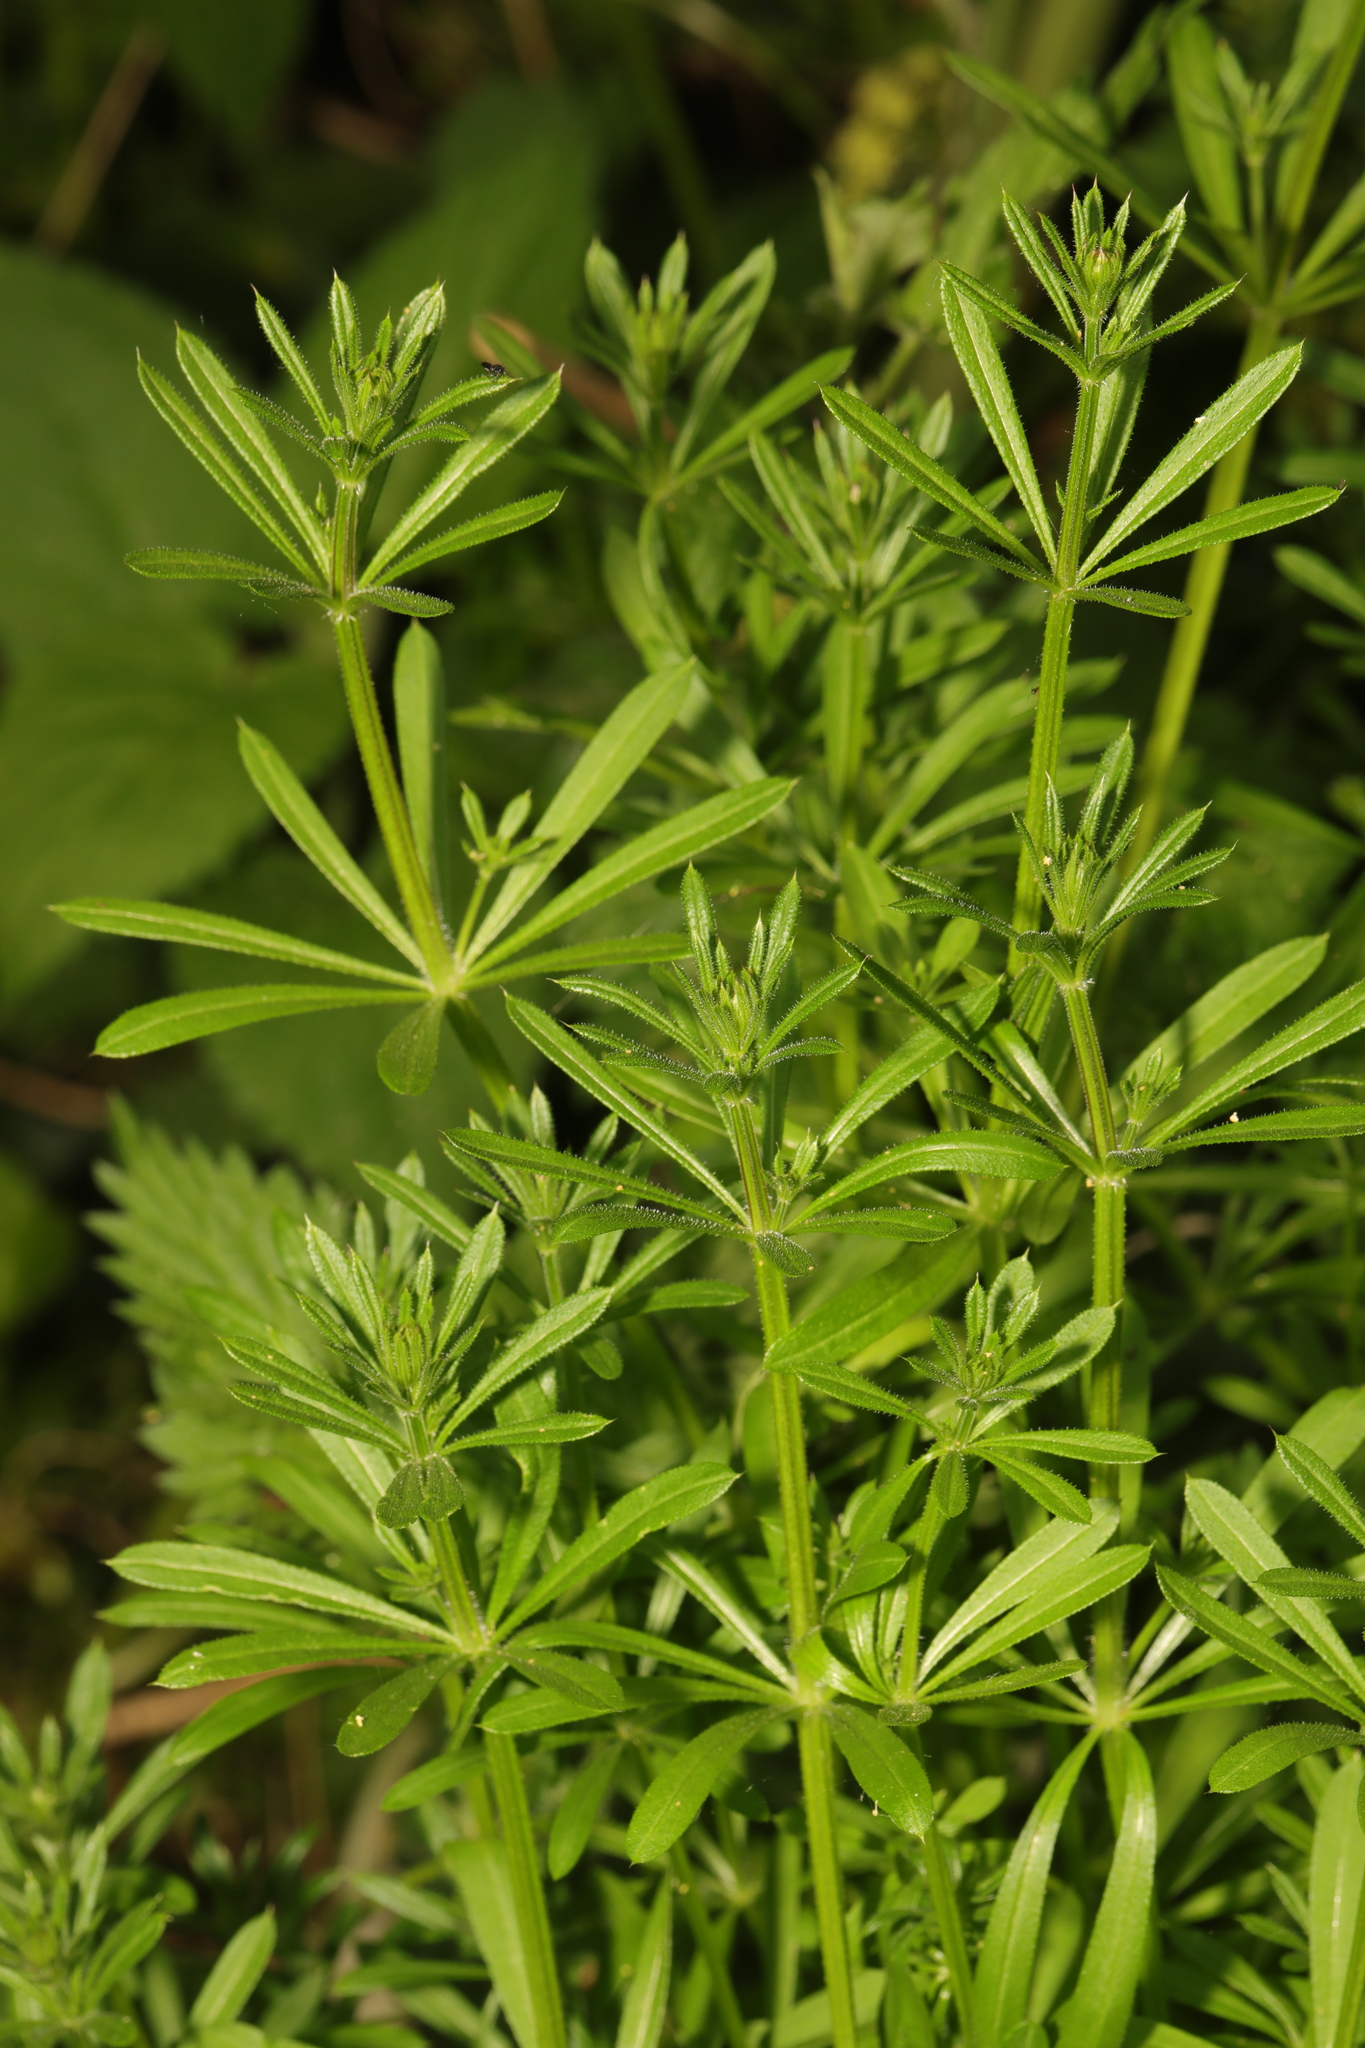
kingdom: Plantae
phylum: Tracheophyta
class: Magnoliopsida
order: Gentianales
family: Rubiaceae
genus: Galium
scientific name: Galium aparine
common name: Cleavers
